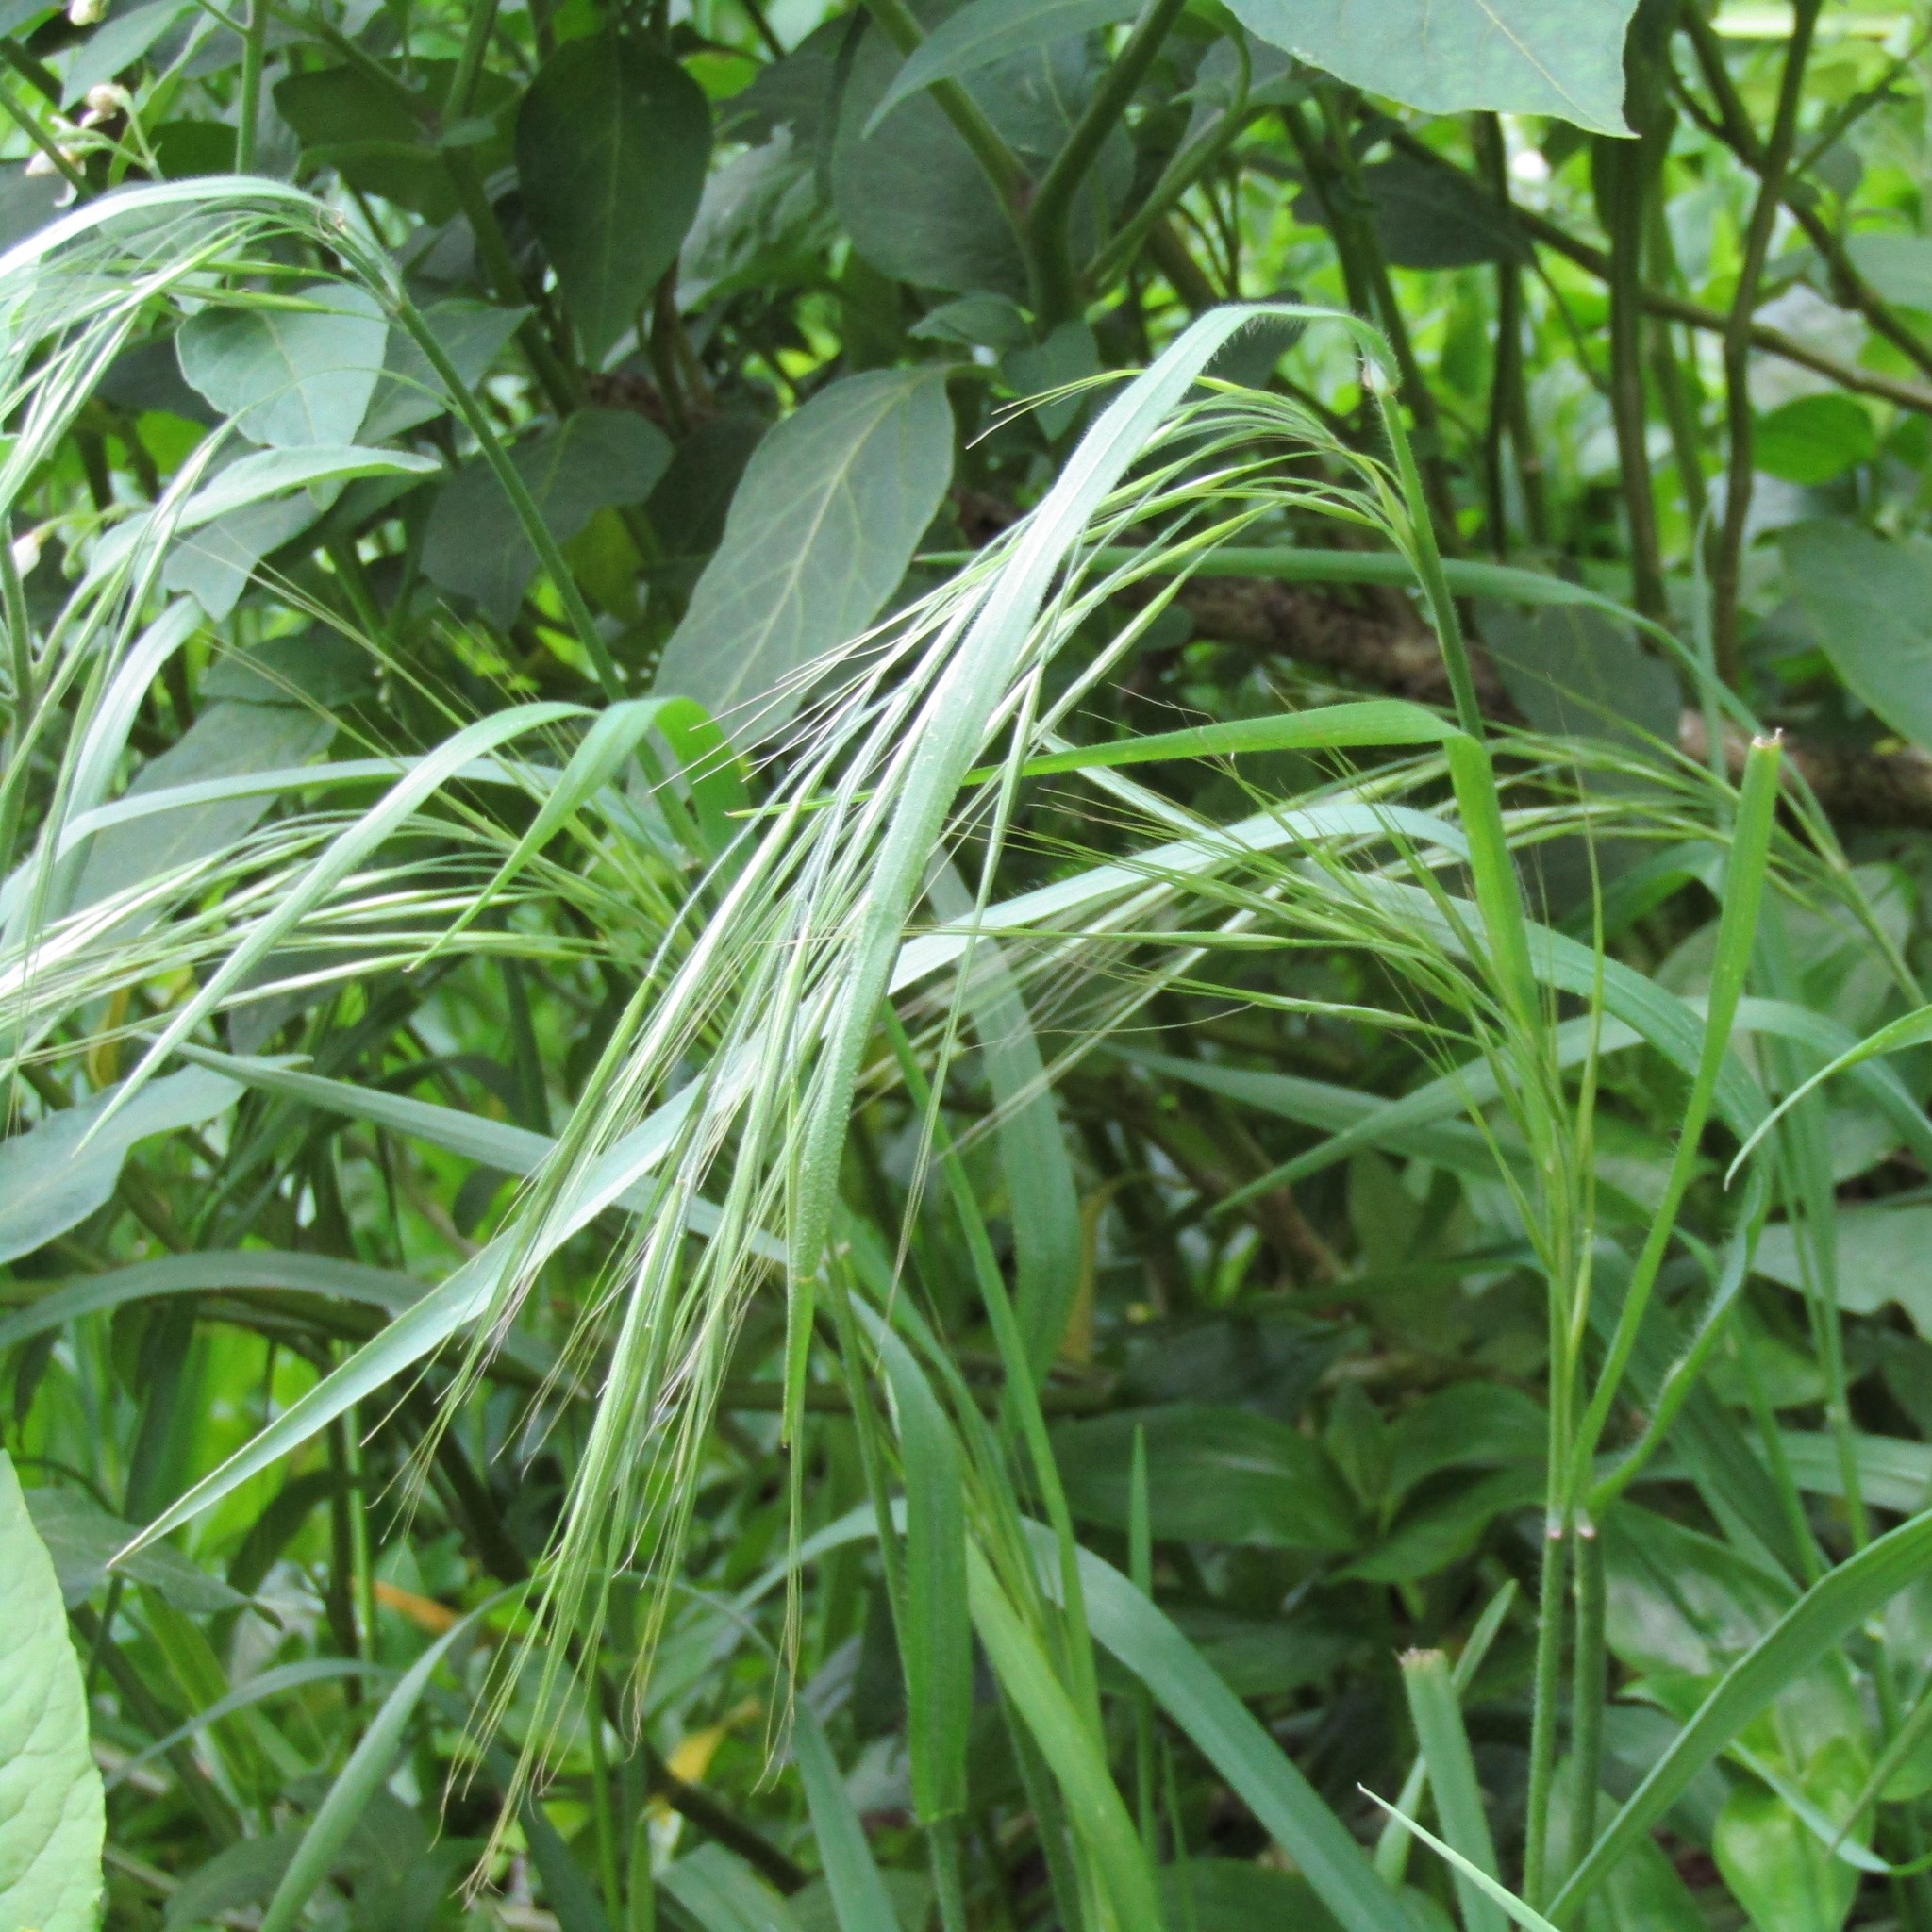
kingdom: Plantae
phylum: Tracheophyta
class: Liliopsida
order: Poales
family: Poaceae
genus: Bromus
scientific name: Bromus diandrus
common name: Ripgut brome
